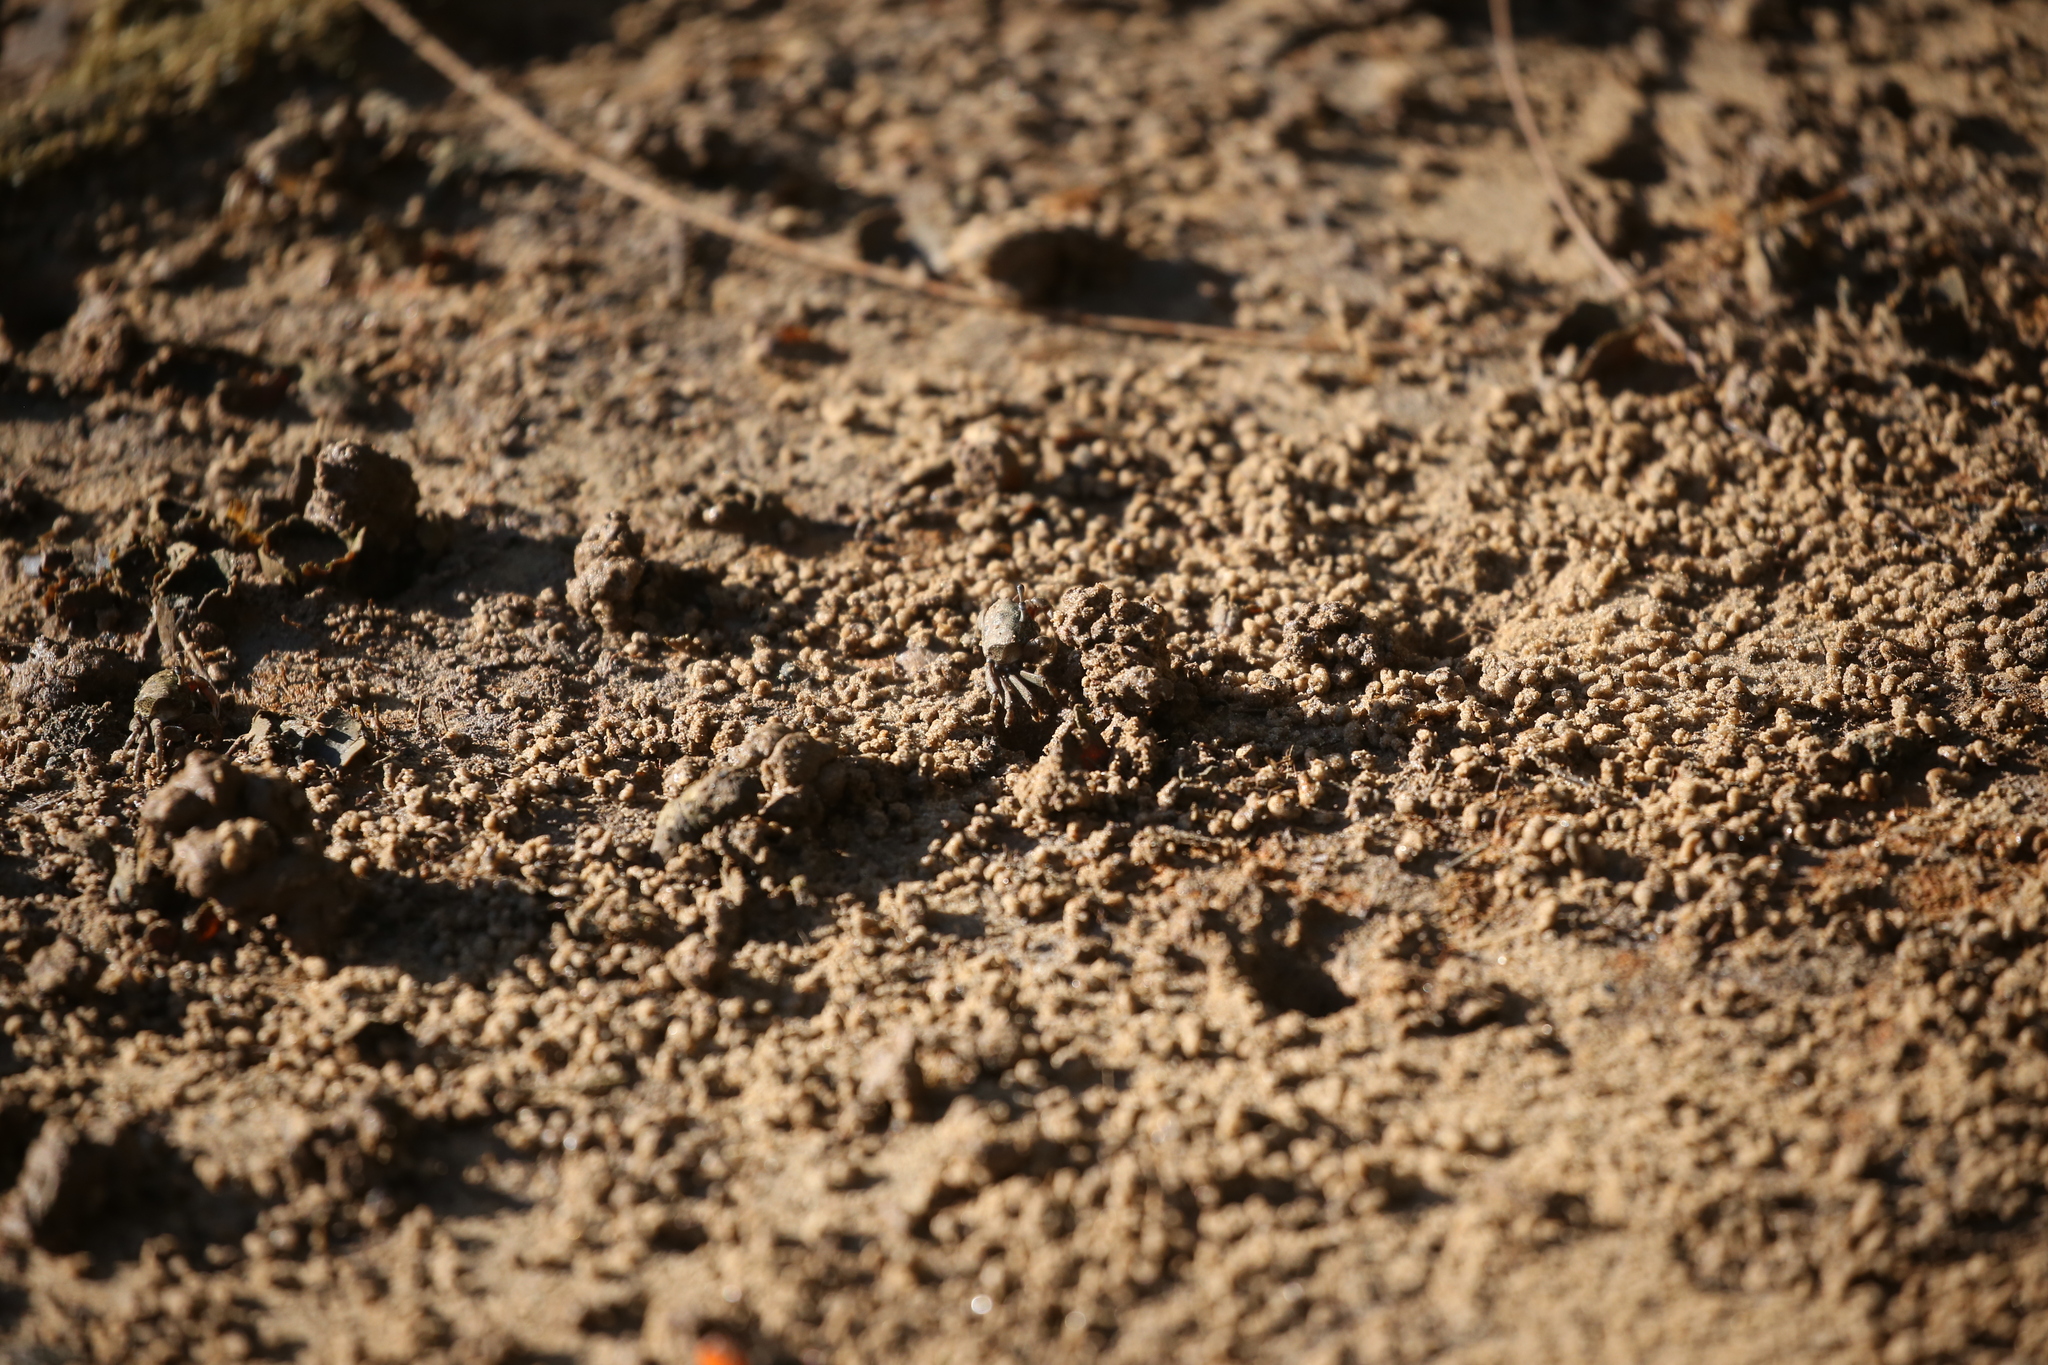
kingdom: Animalia
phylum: Arthropoda
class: Malacostraca
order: Decapoda
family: Heloeciidae
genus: Heloecius
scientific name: Heloecius cordiformis
